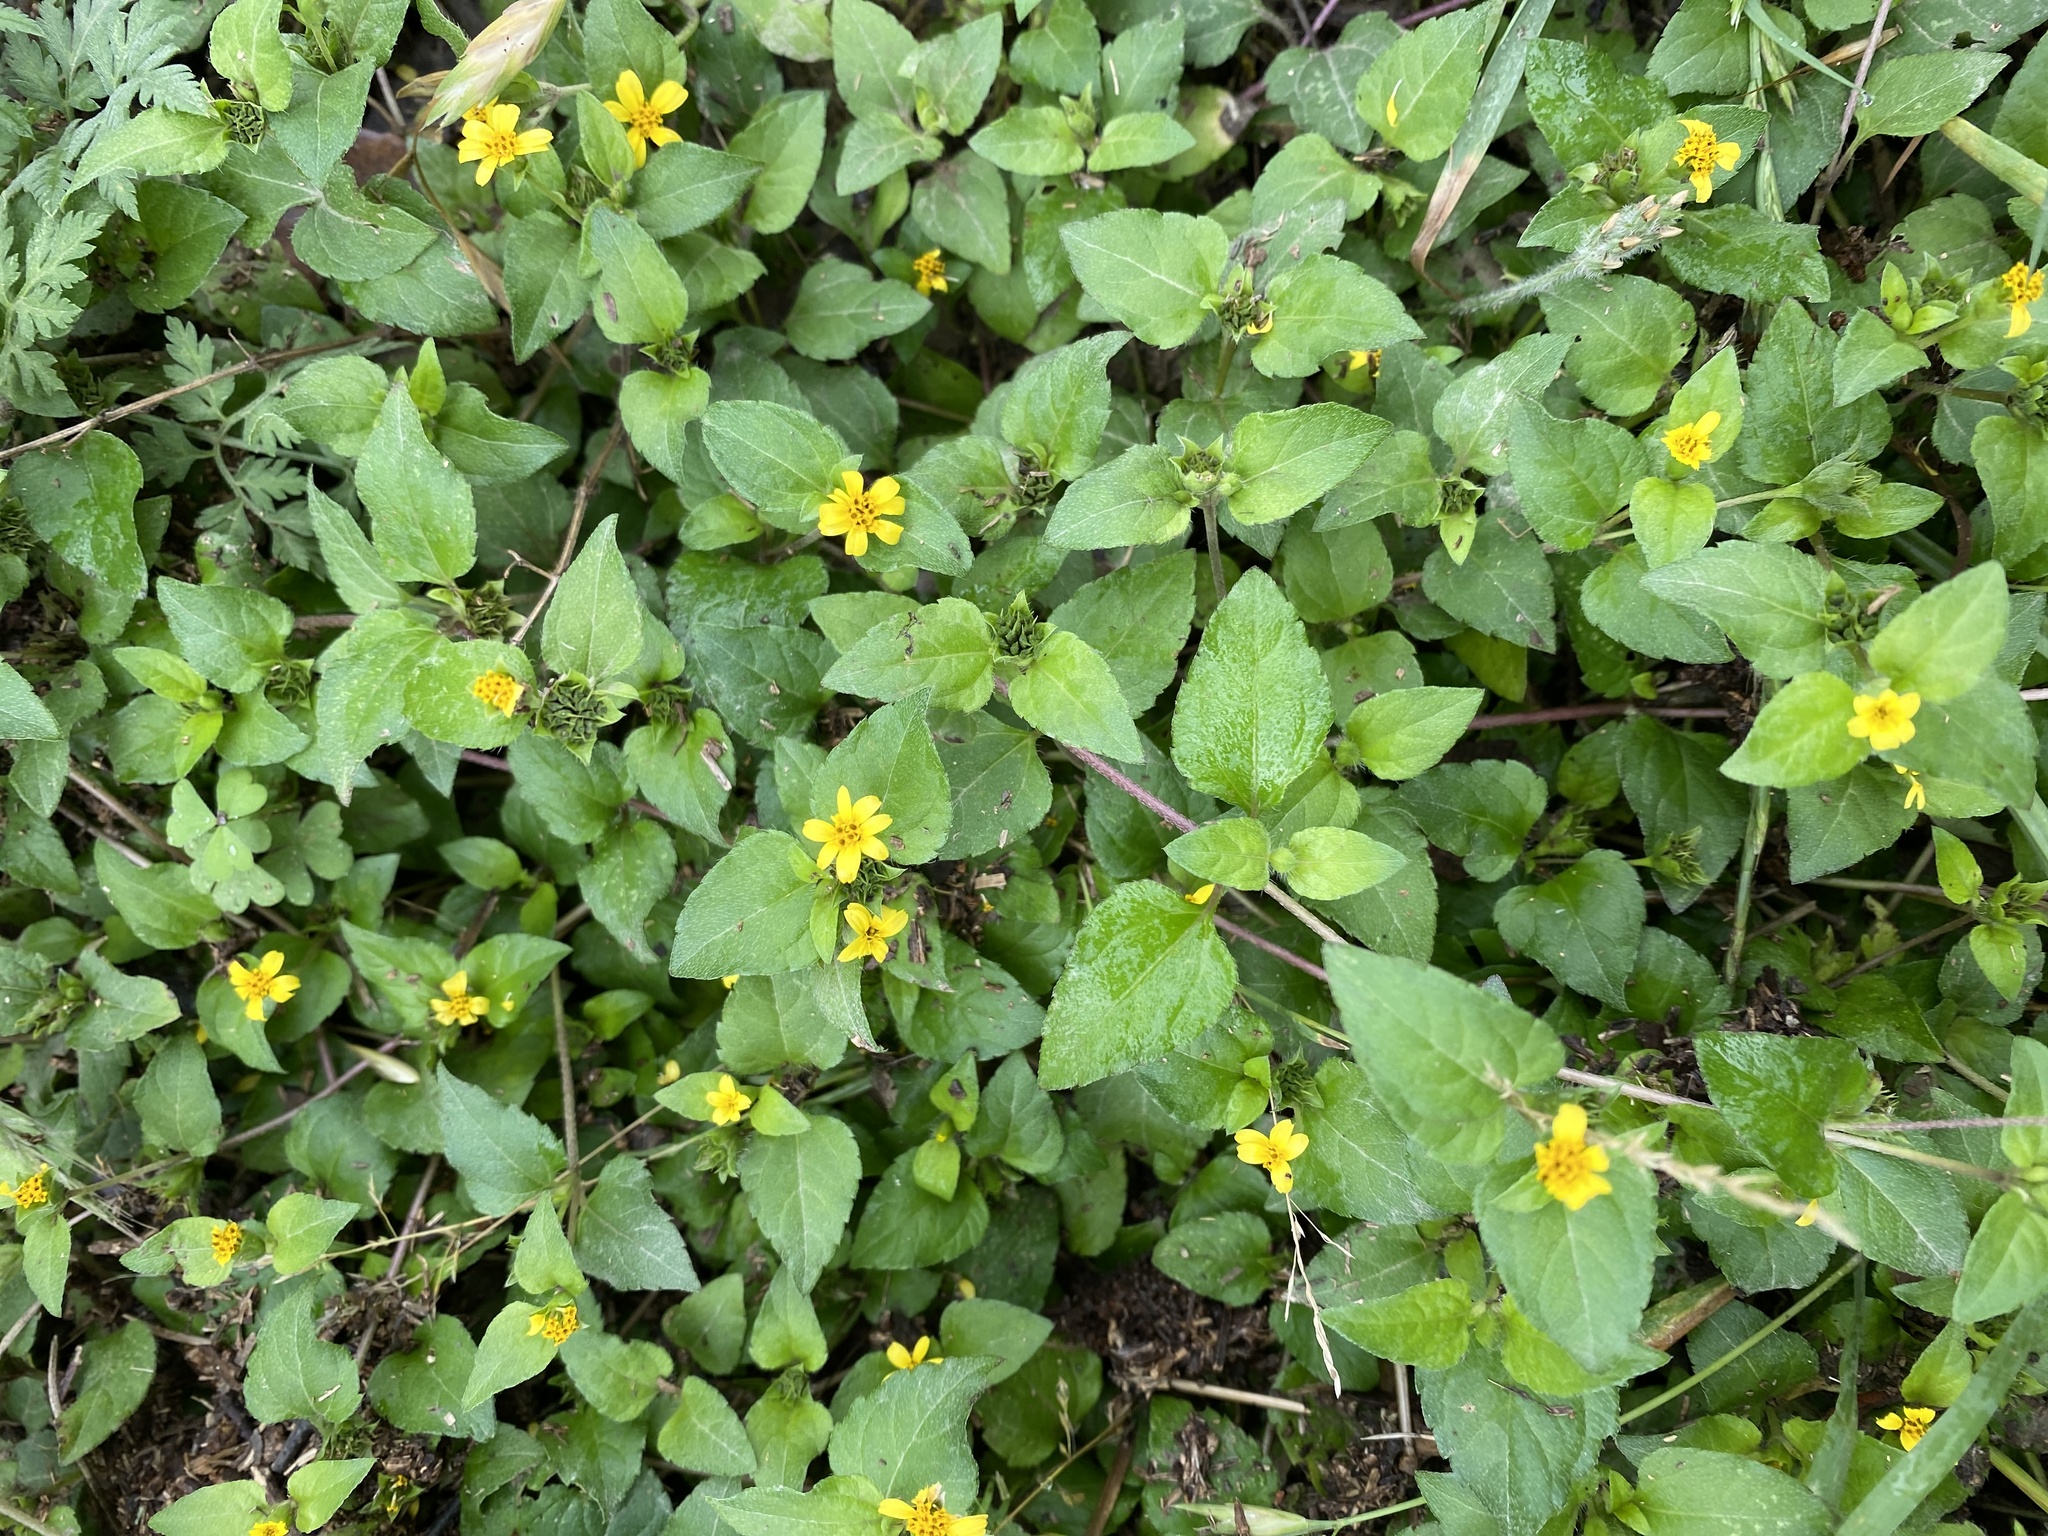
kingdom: Plantae
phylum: Tracheophyta
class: Magnoliopsida
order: Asterales
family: Asteraceae
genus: Calyptocarpus
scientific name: Calyptocarpus vialis
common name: Straggler daisy
